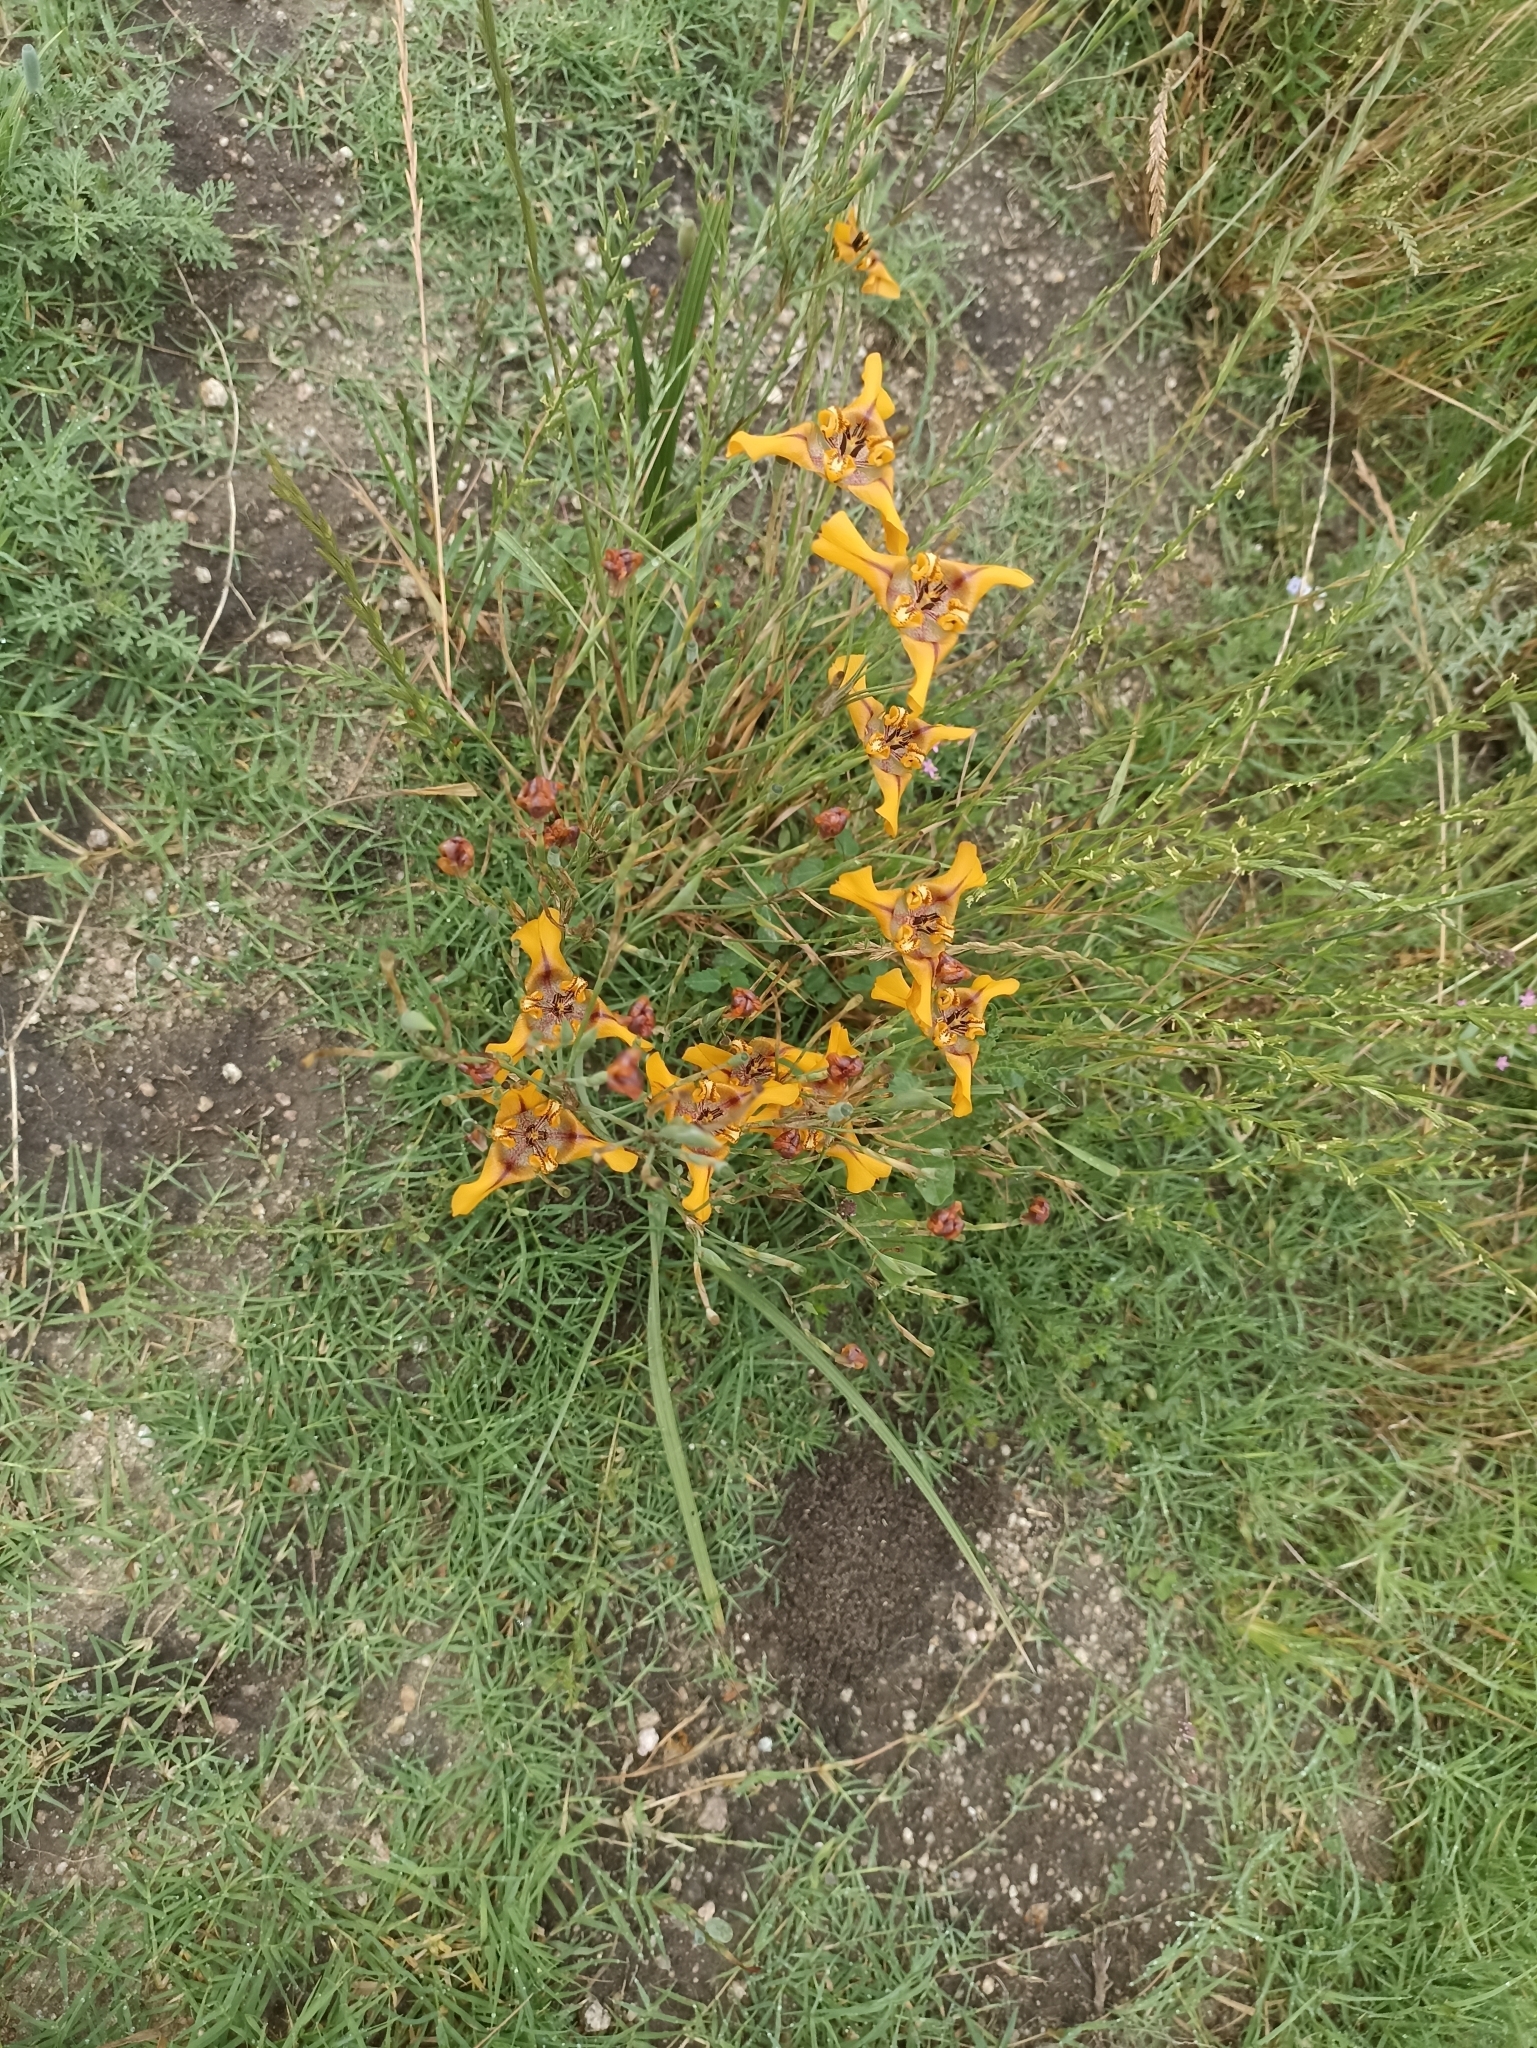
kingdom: Plantae
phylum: Tracheophyta
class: Liliopsida
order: Asparagales
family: Iridaceae
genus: Cypella
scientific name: Cypella herbertii
